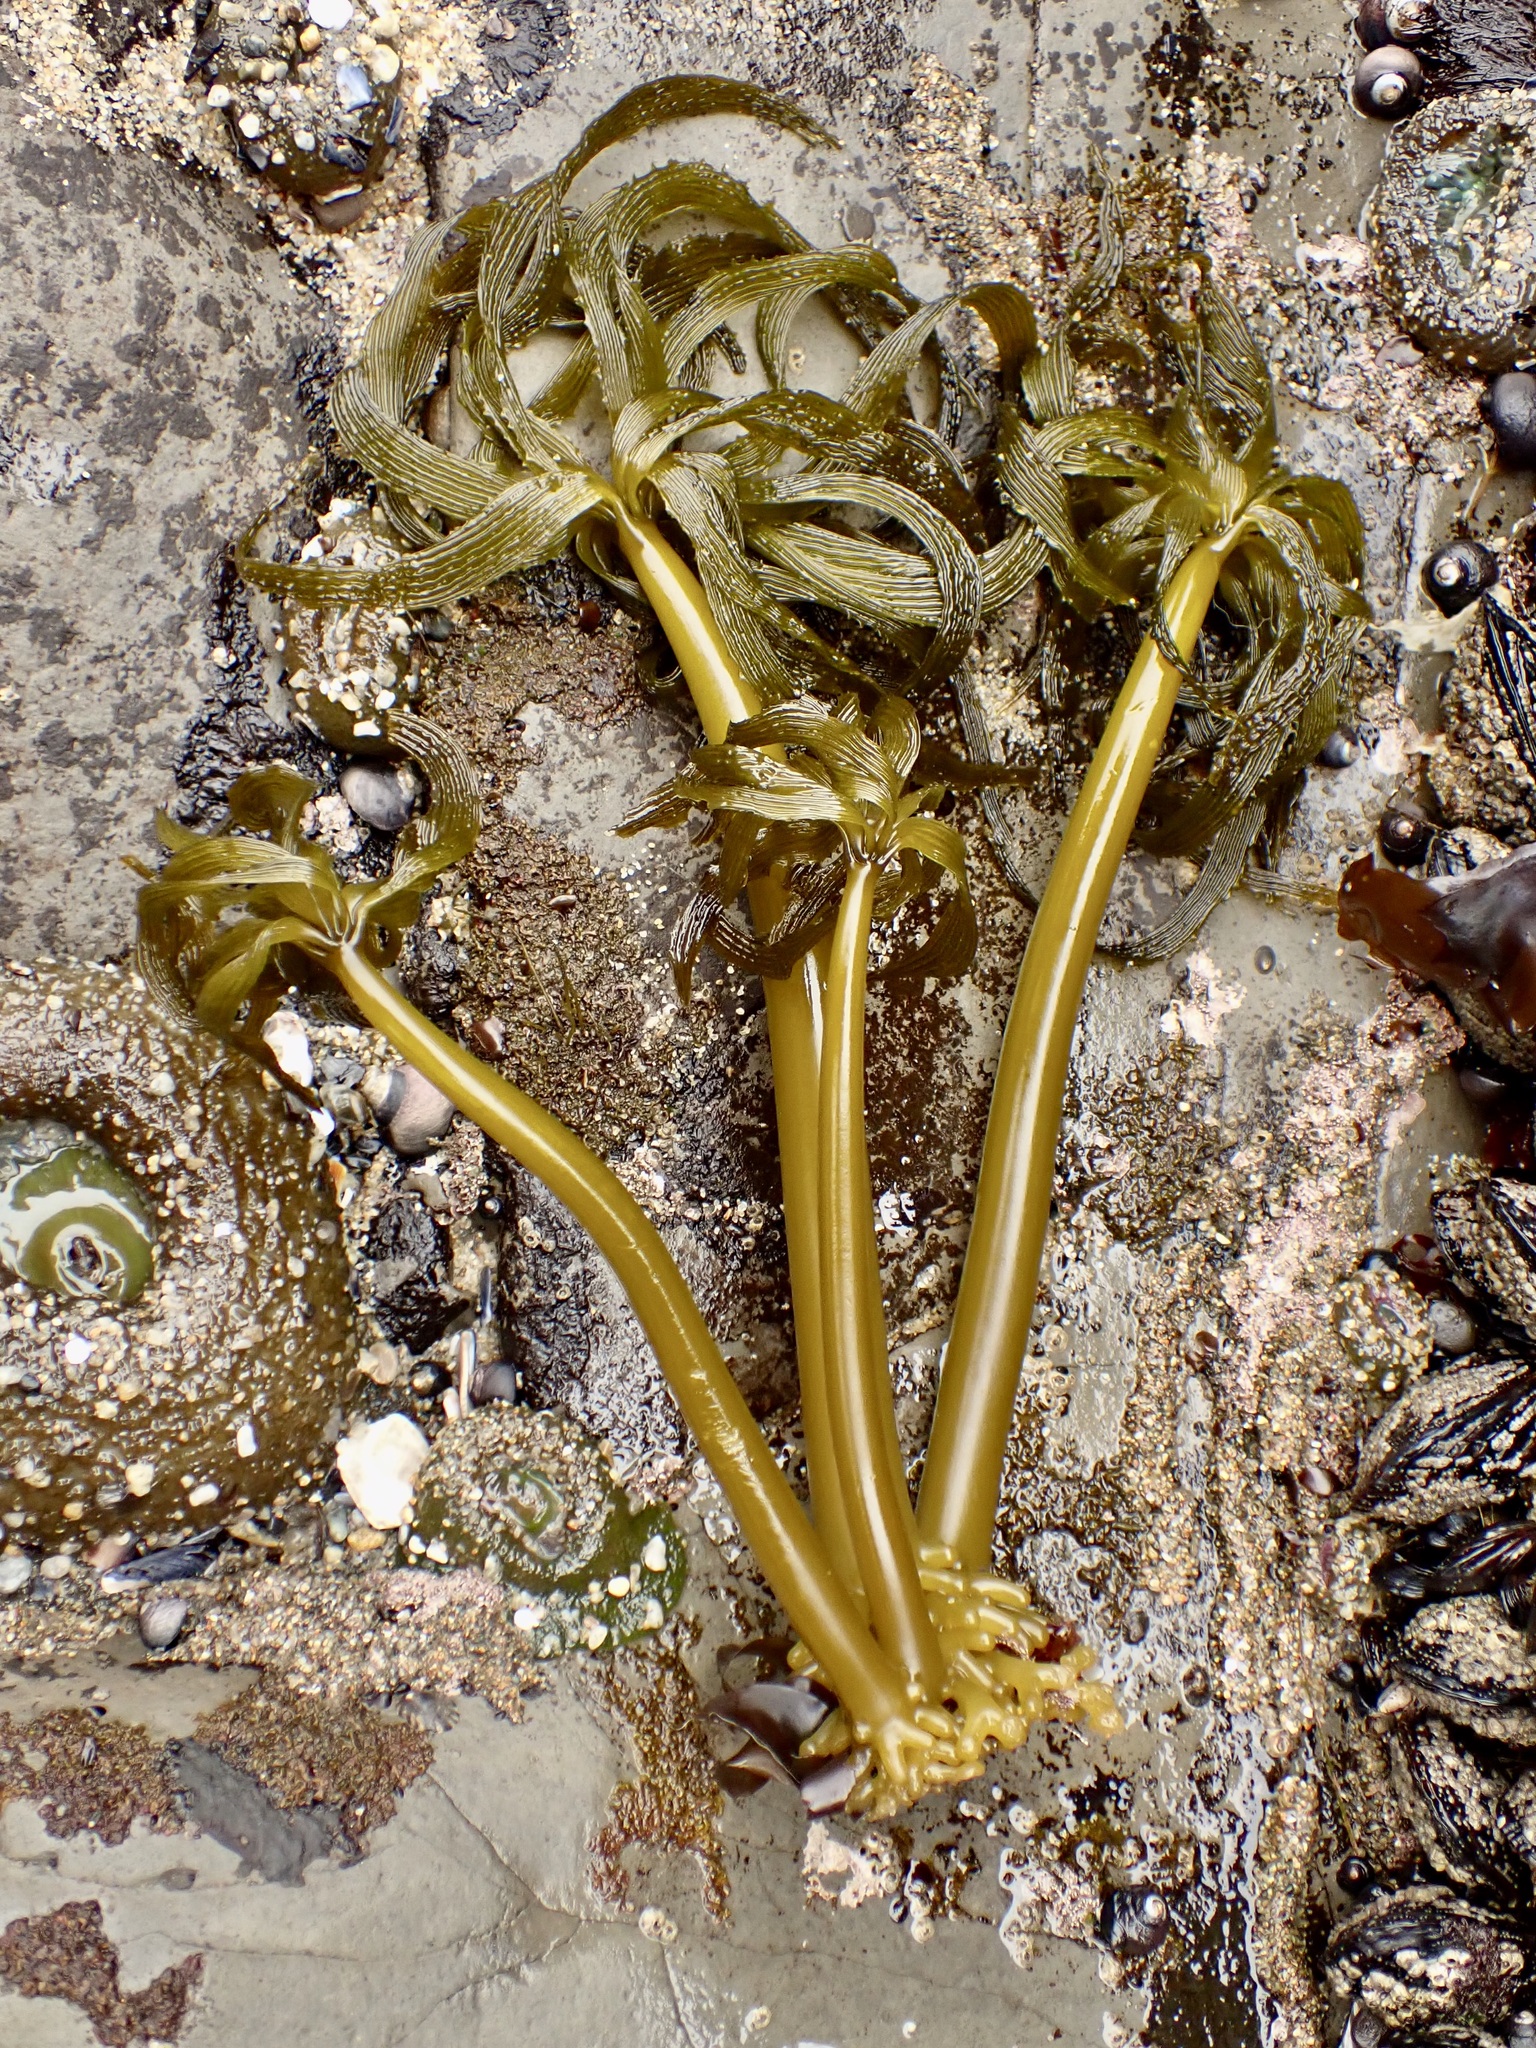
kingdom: Chromista
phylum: Ochrophyta
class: Phaeophyceae
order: Laminariales
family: Laminariaceae
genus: Postelsia
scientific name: Postelsia palmiformis
